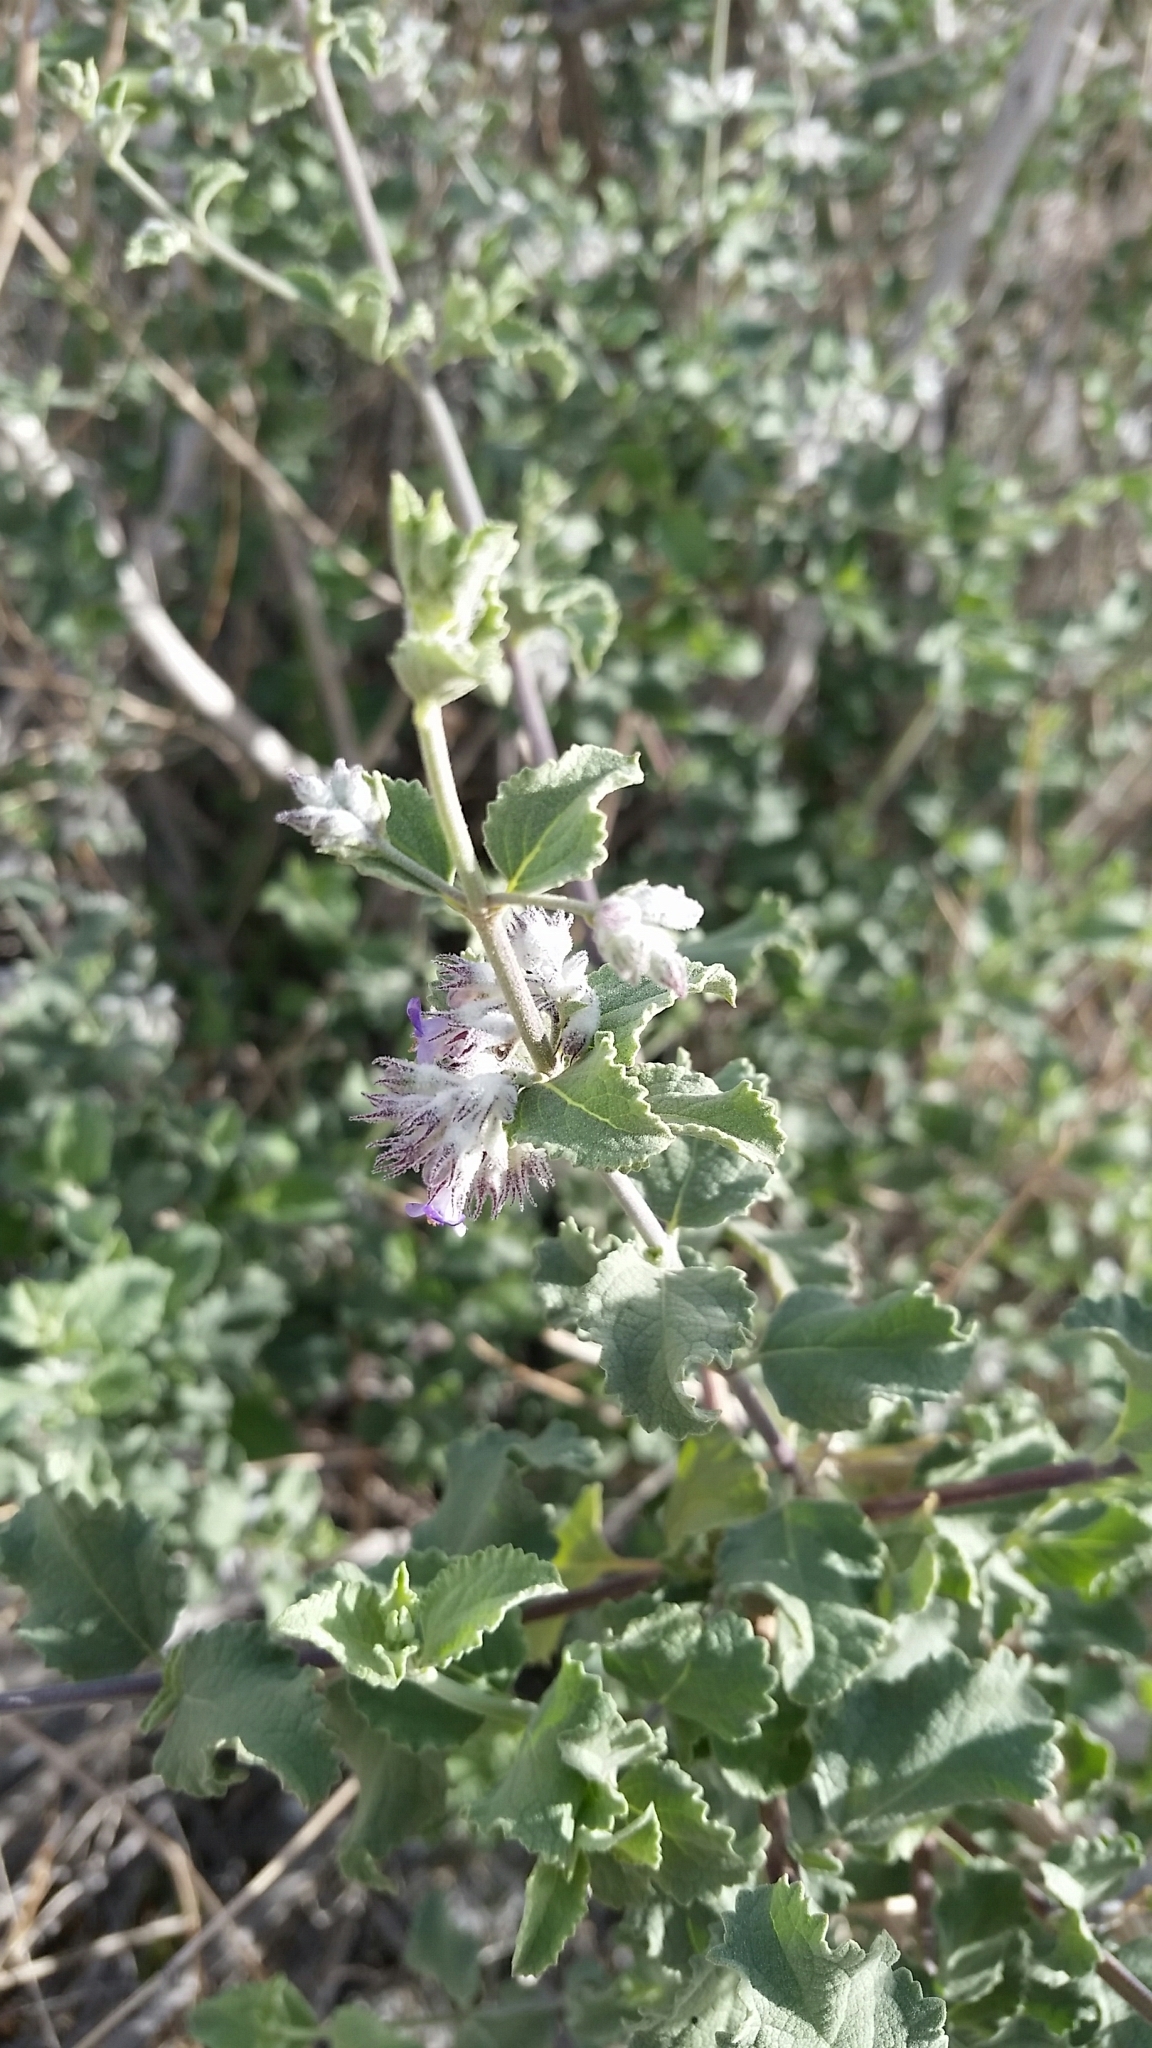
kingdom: Plantae
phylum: Tracheophyta
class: Magnoliopsida
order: Lamiales
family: Lamiaceae
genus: Condea
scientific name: Condea emoryi
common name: Chia
